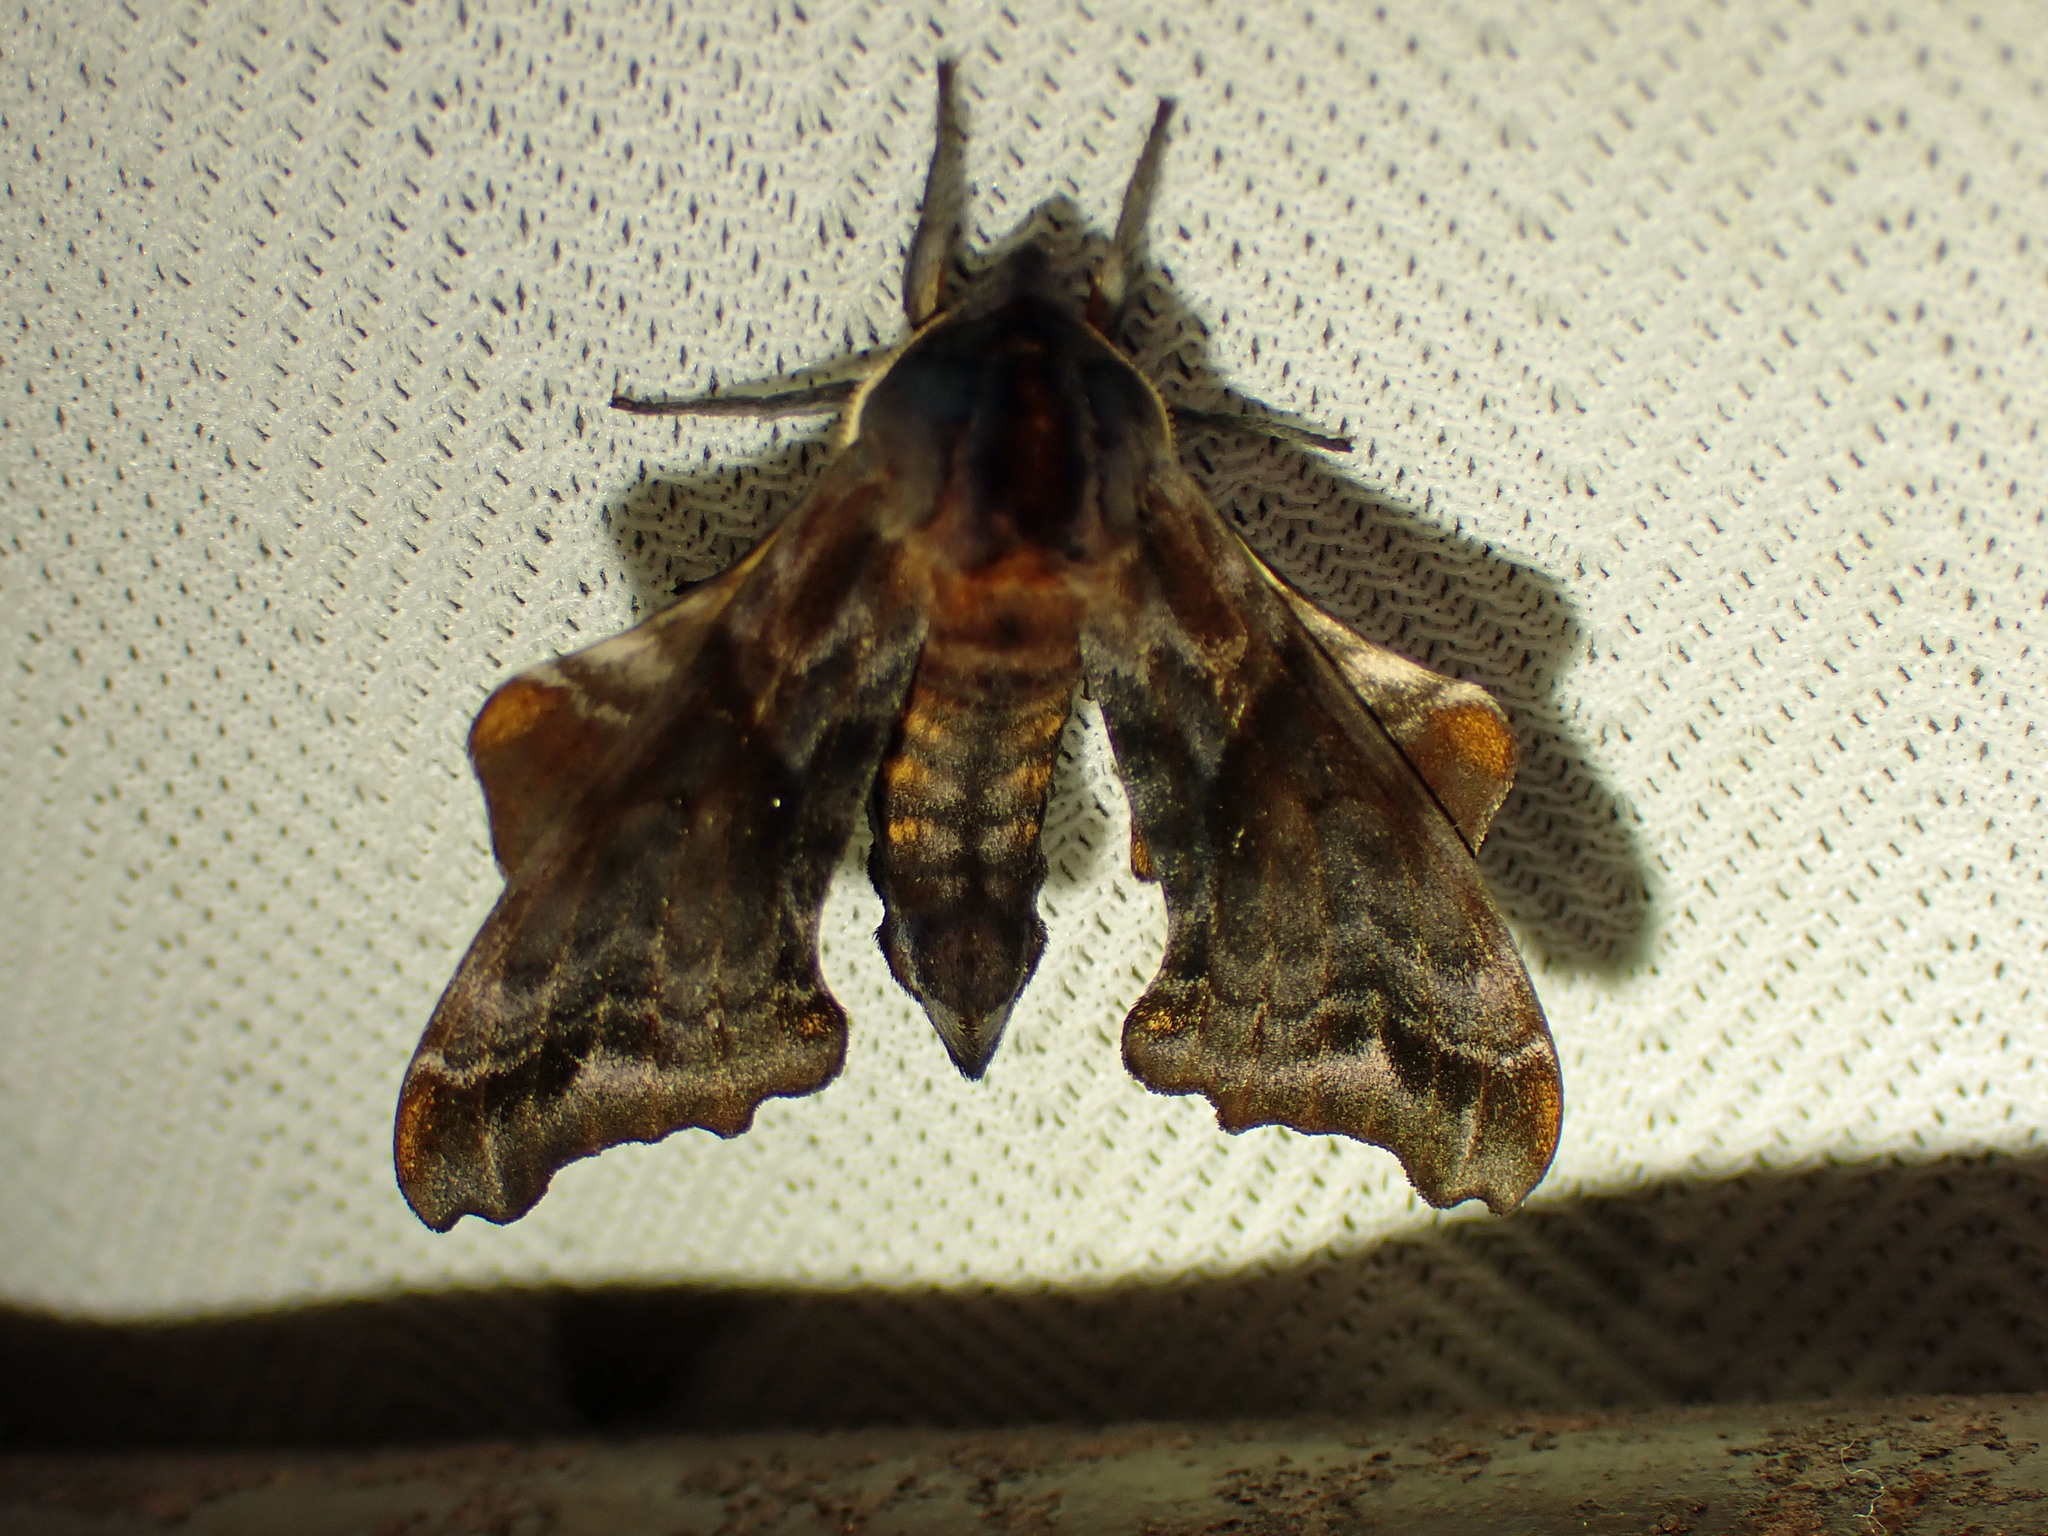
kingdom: Animalia
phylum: Arthropoda
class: Insecta
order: Lepidoptera
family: Sphingidae
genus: Paonias
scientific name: Paonias myops
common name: Small-eyed sphinx
